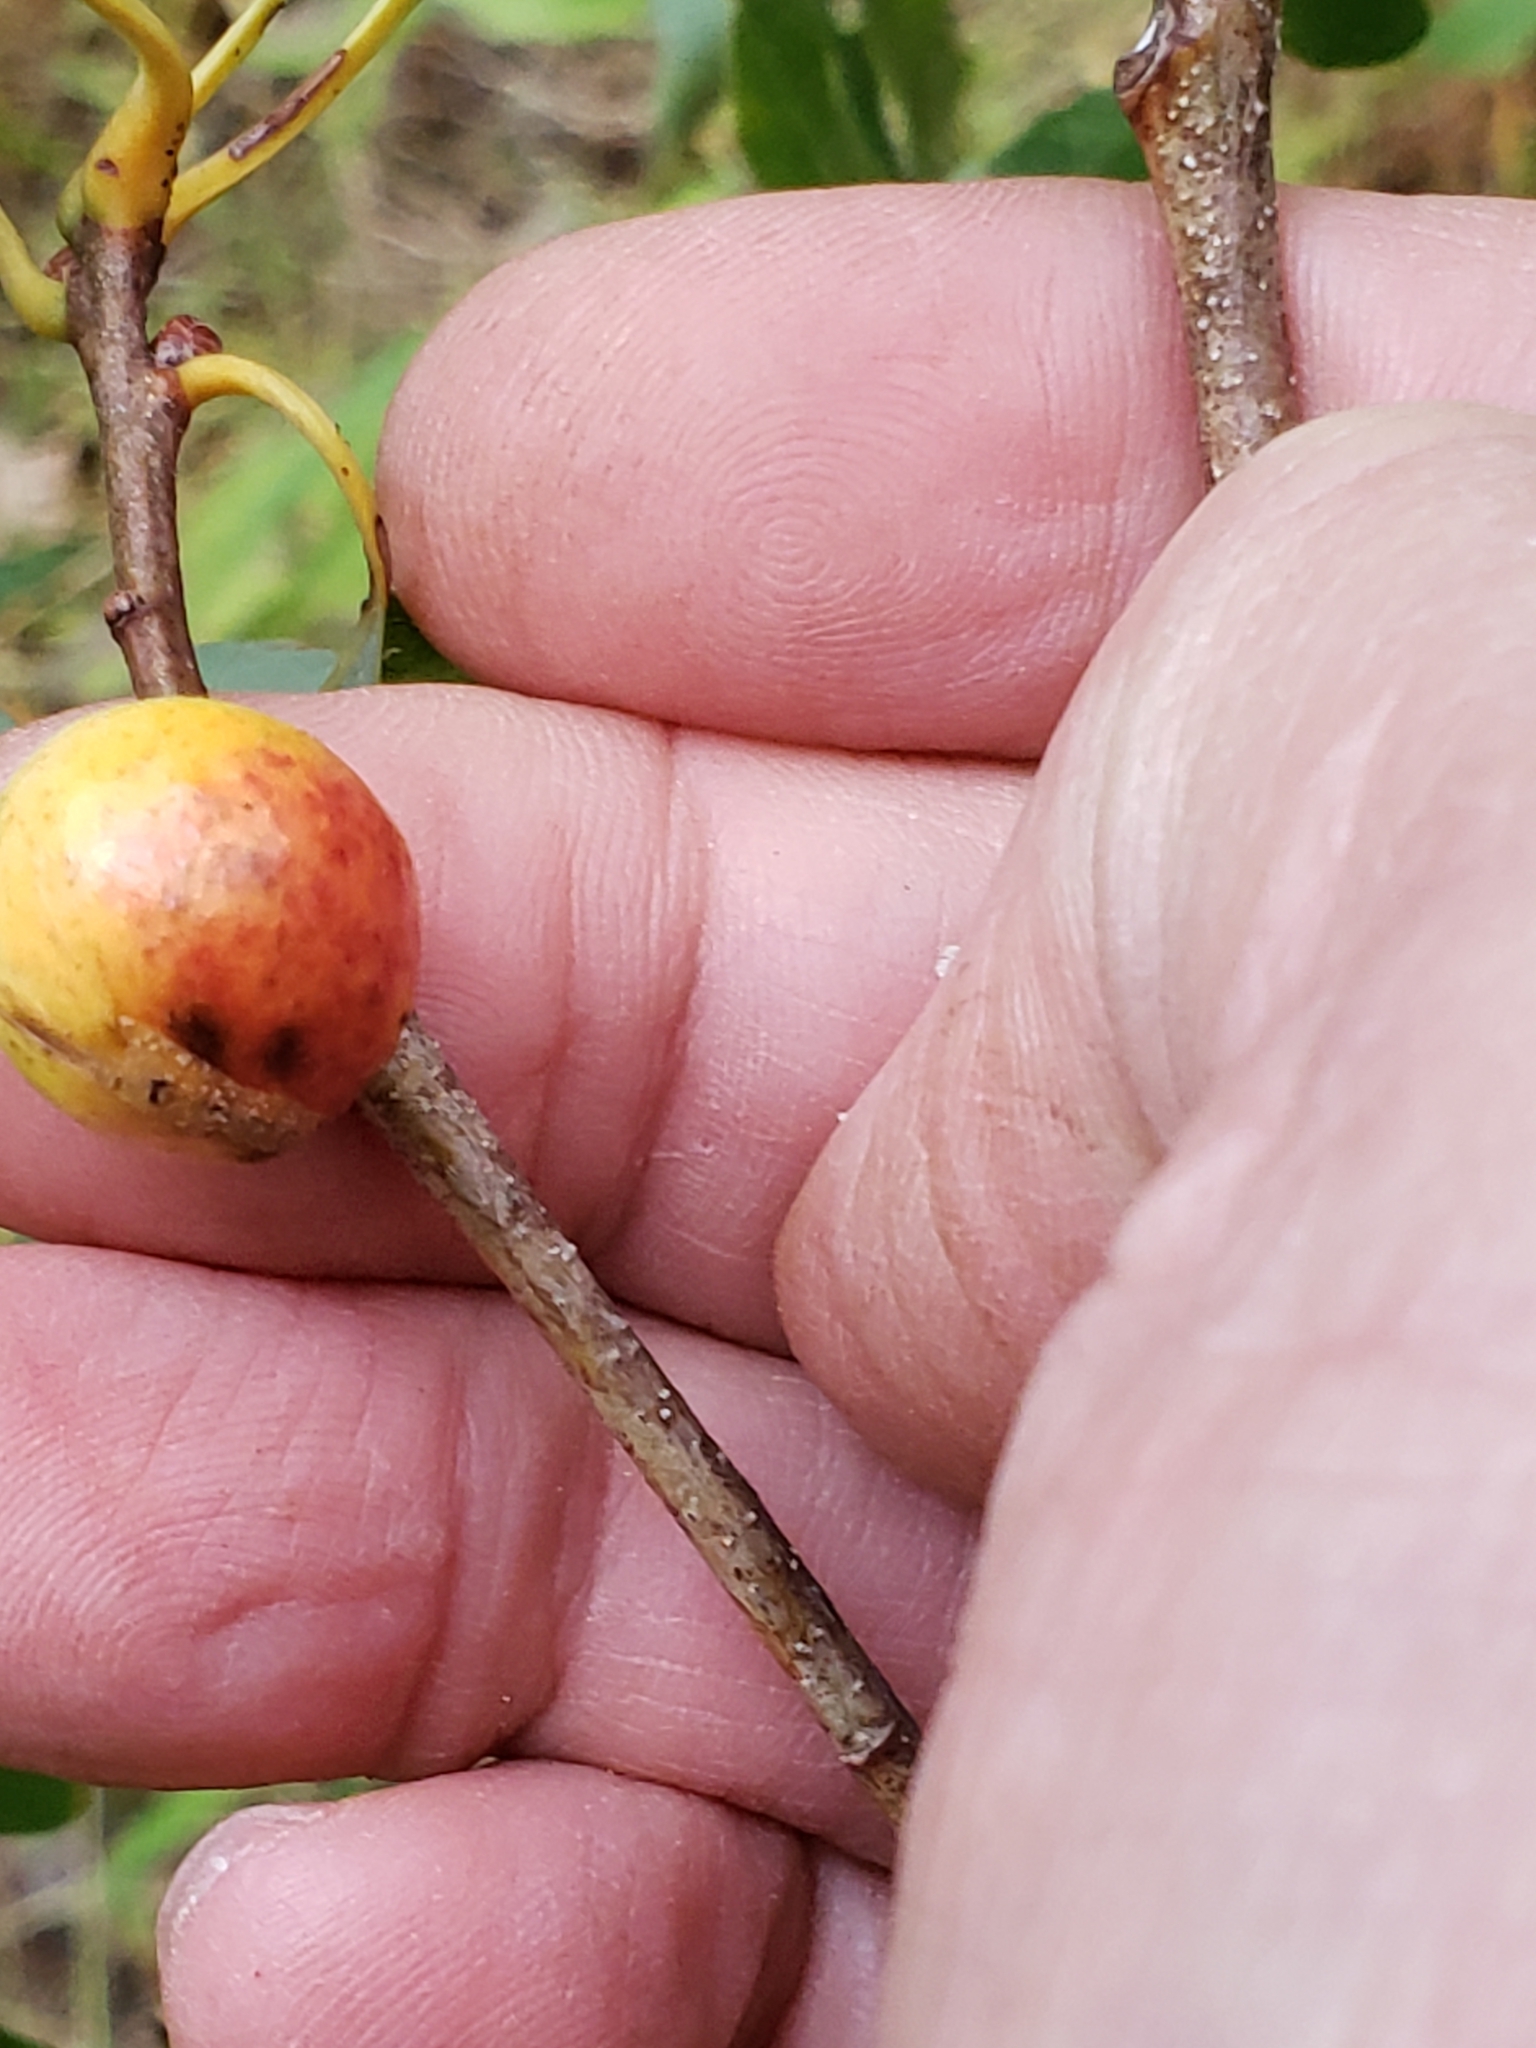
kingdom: Animalia
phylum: Arthropoda
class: Insecta
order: Hymenoptera
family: Cynipidae
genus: Disholcaspis
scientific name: Disholcaspis quercusglobulus
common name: Round bullet gall wasp
